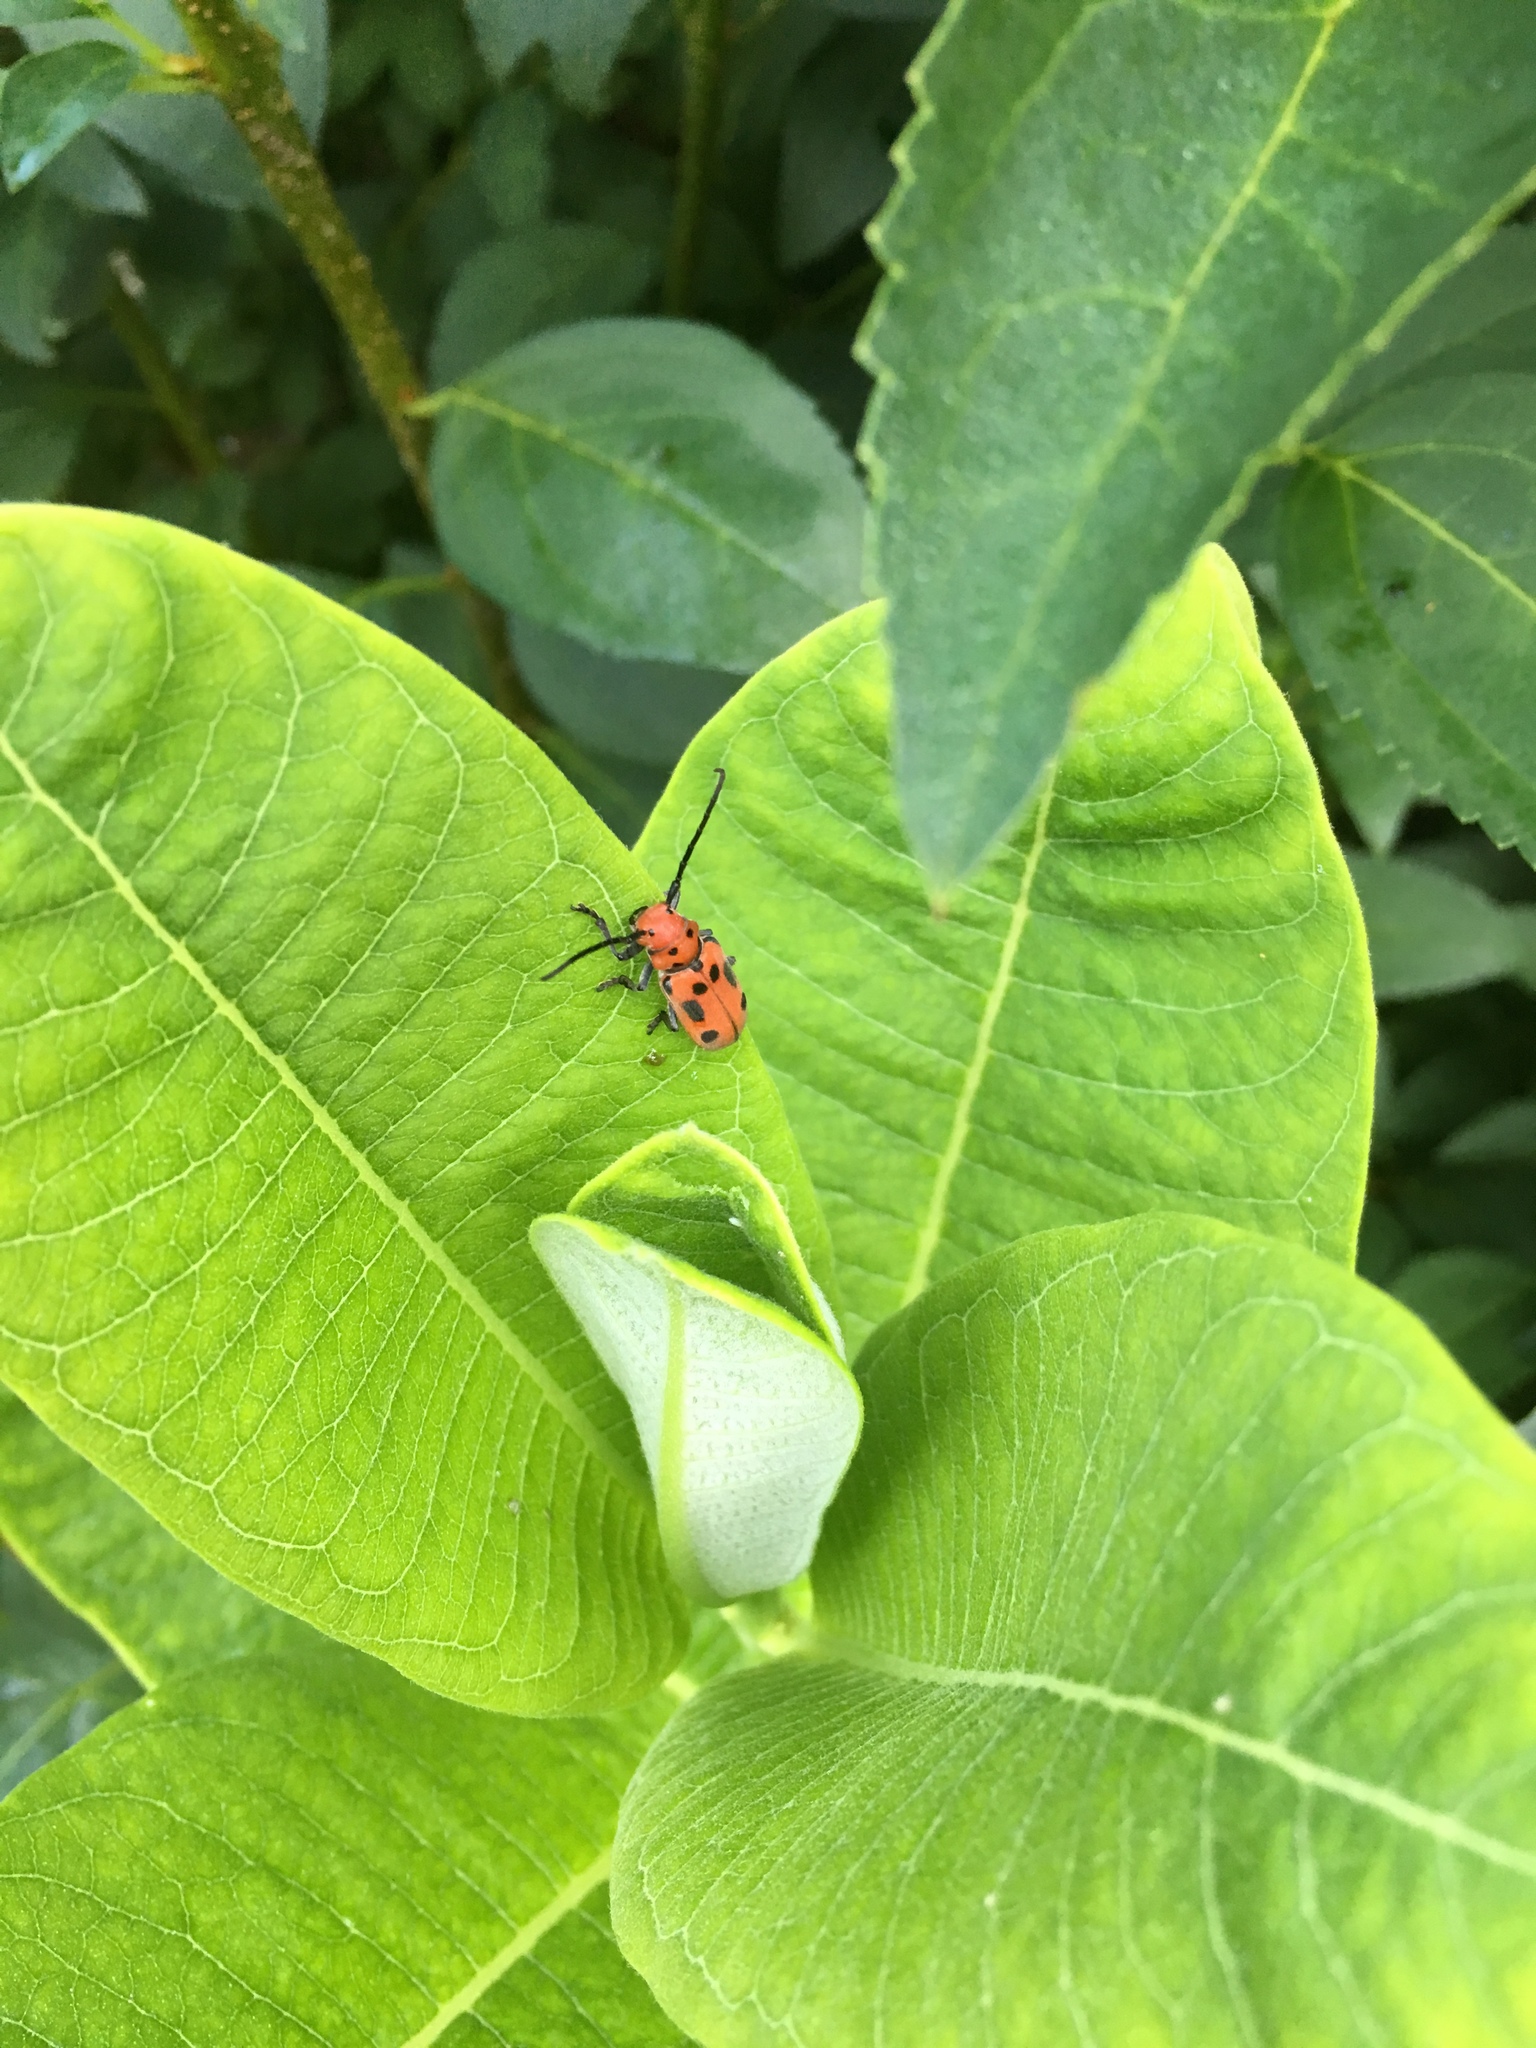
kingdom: Animalia
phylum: Arthropoda
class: Insecta
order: Coleoptera
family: Cerambycidae
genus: Tetraopes
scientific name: Tetraopes tetrophthalmus
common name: Red milkweed beetle
